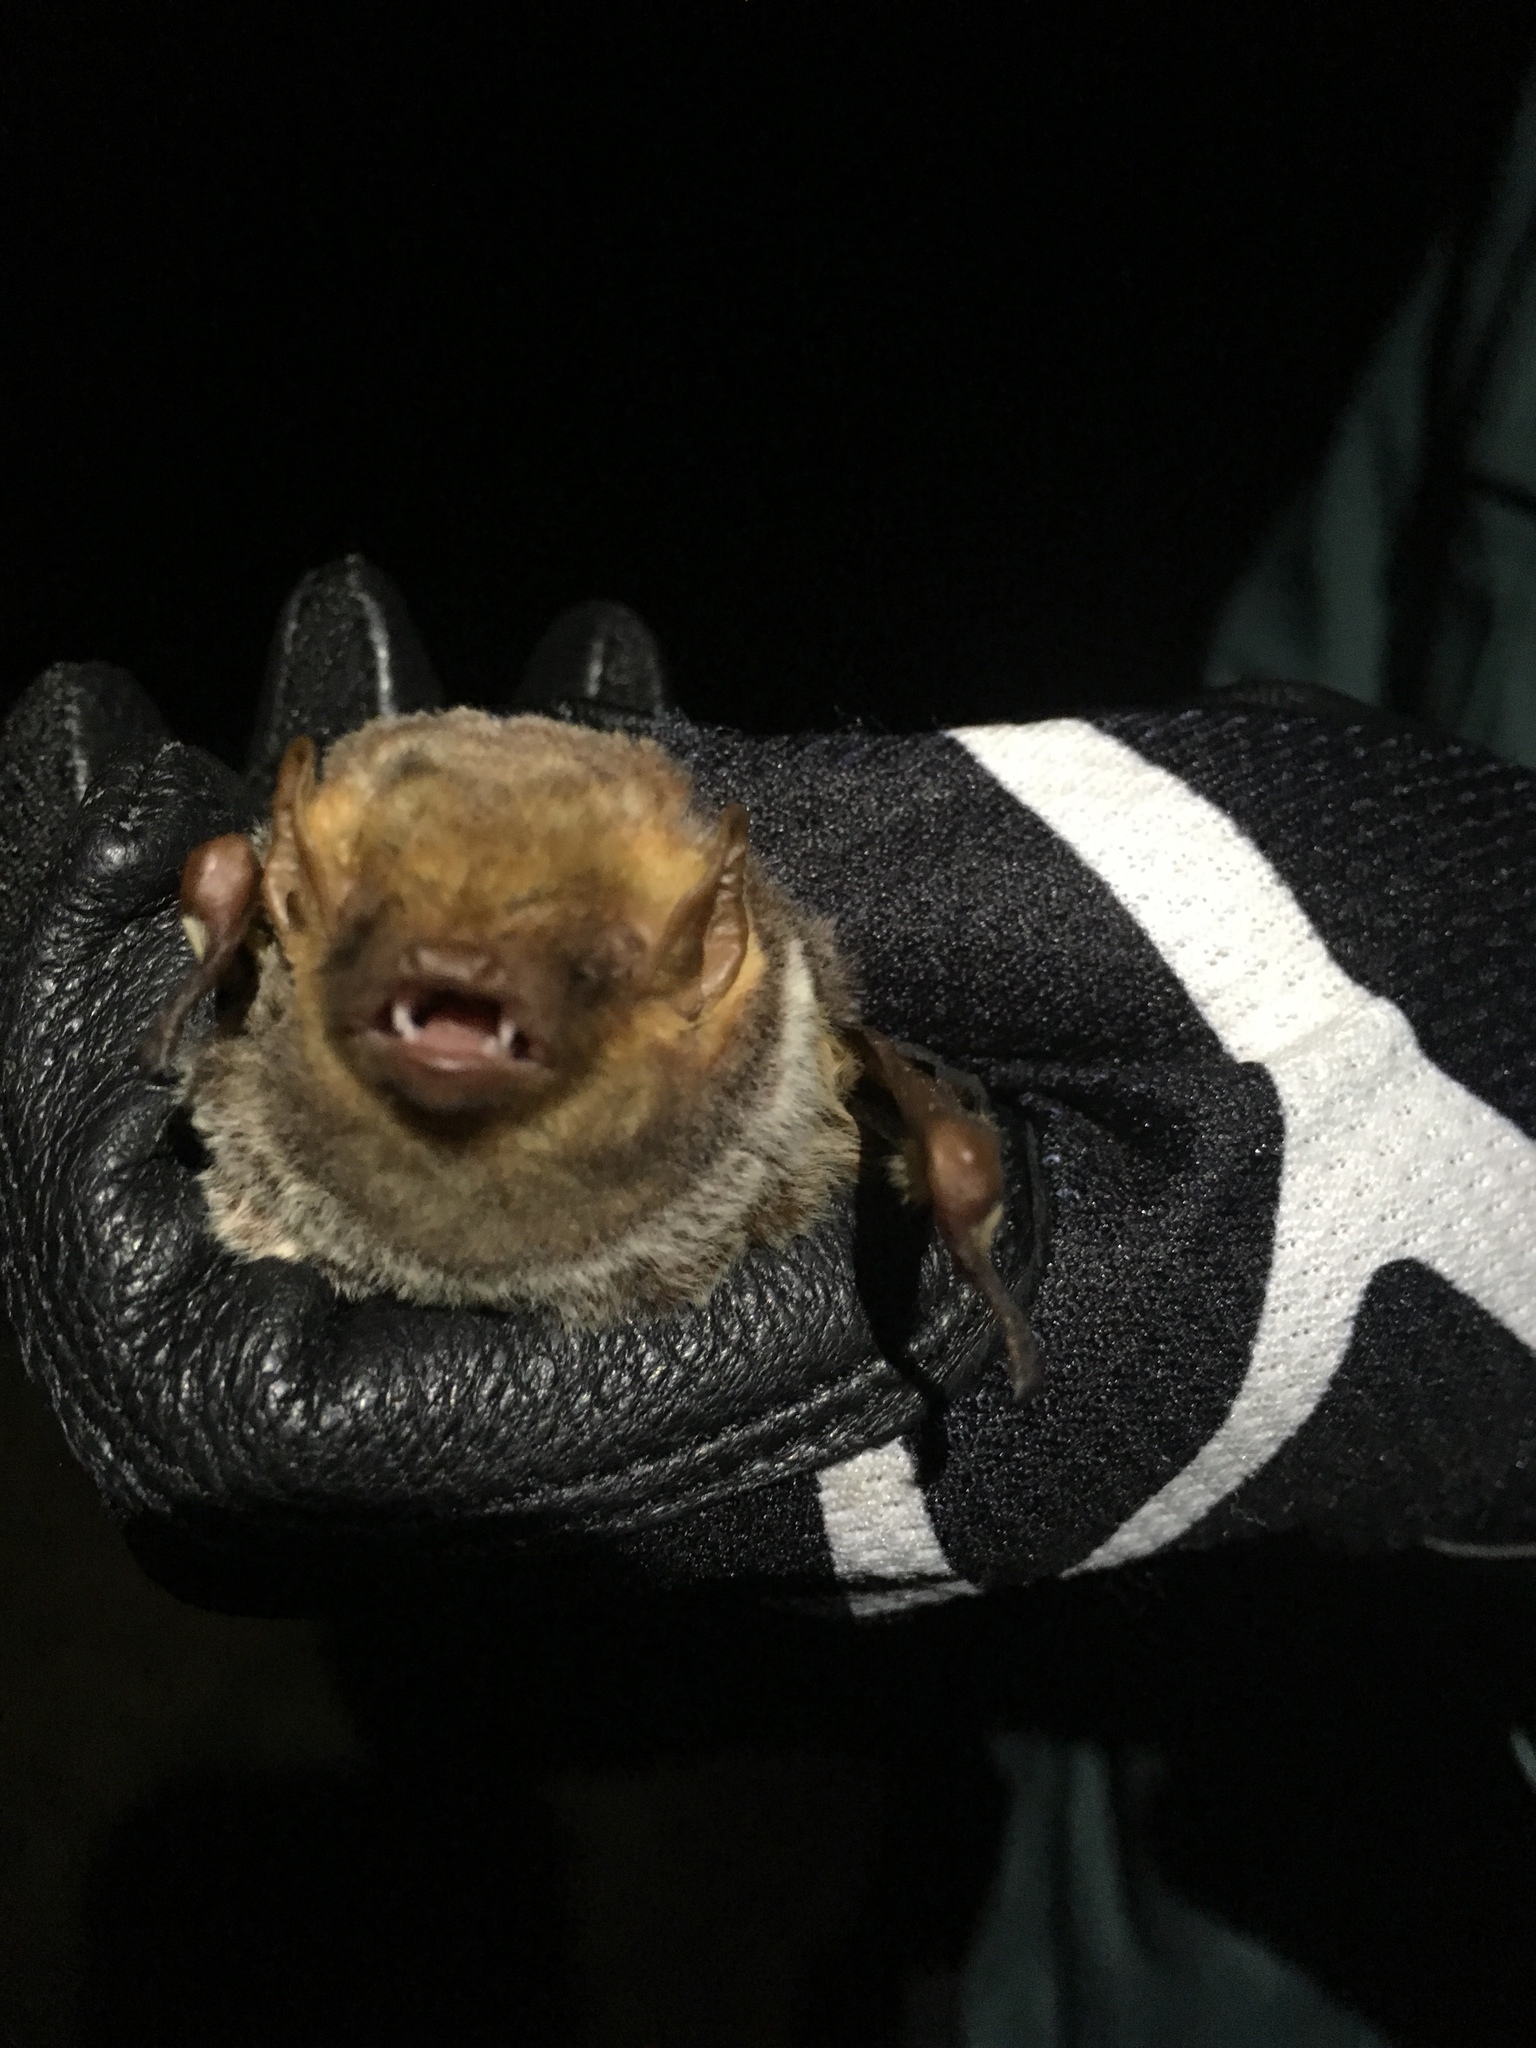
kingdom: Animalia
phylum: Chordata
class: Mammalia
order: Chiroptera
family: Vespertilionidae
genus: Lasiurus
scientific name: Lasiurus seminolus
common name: Seminole bat
